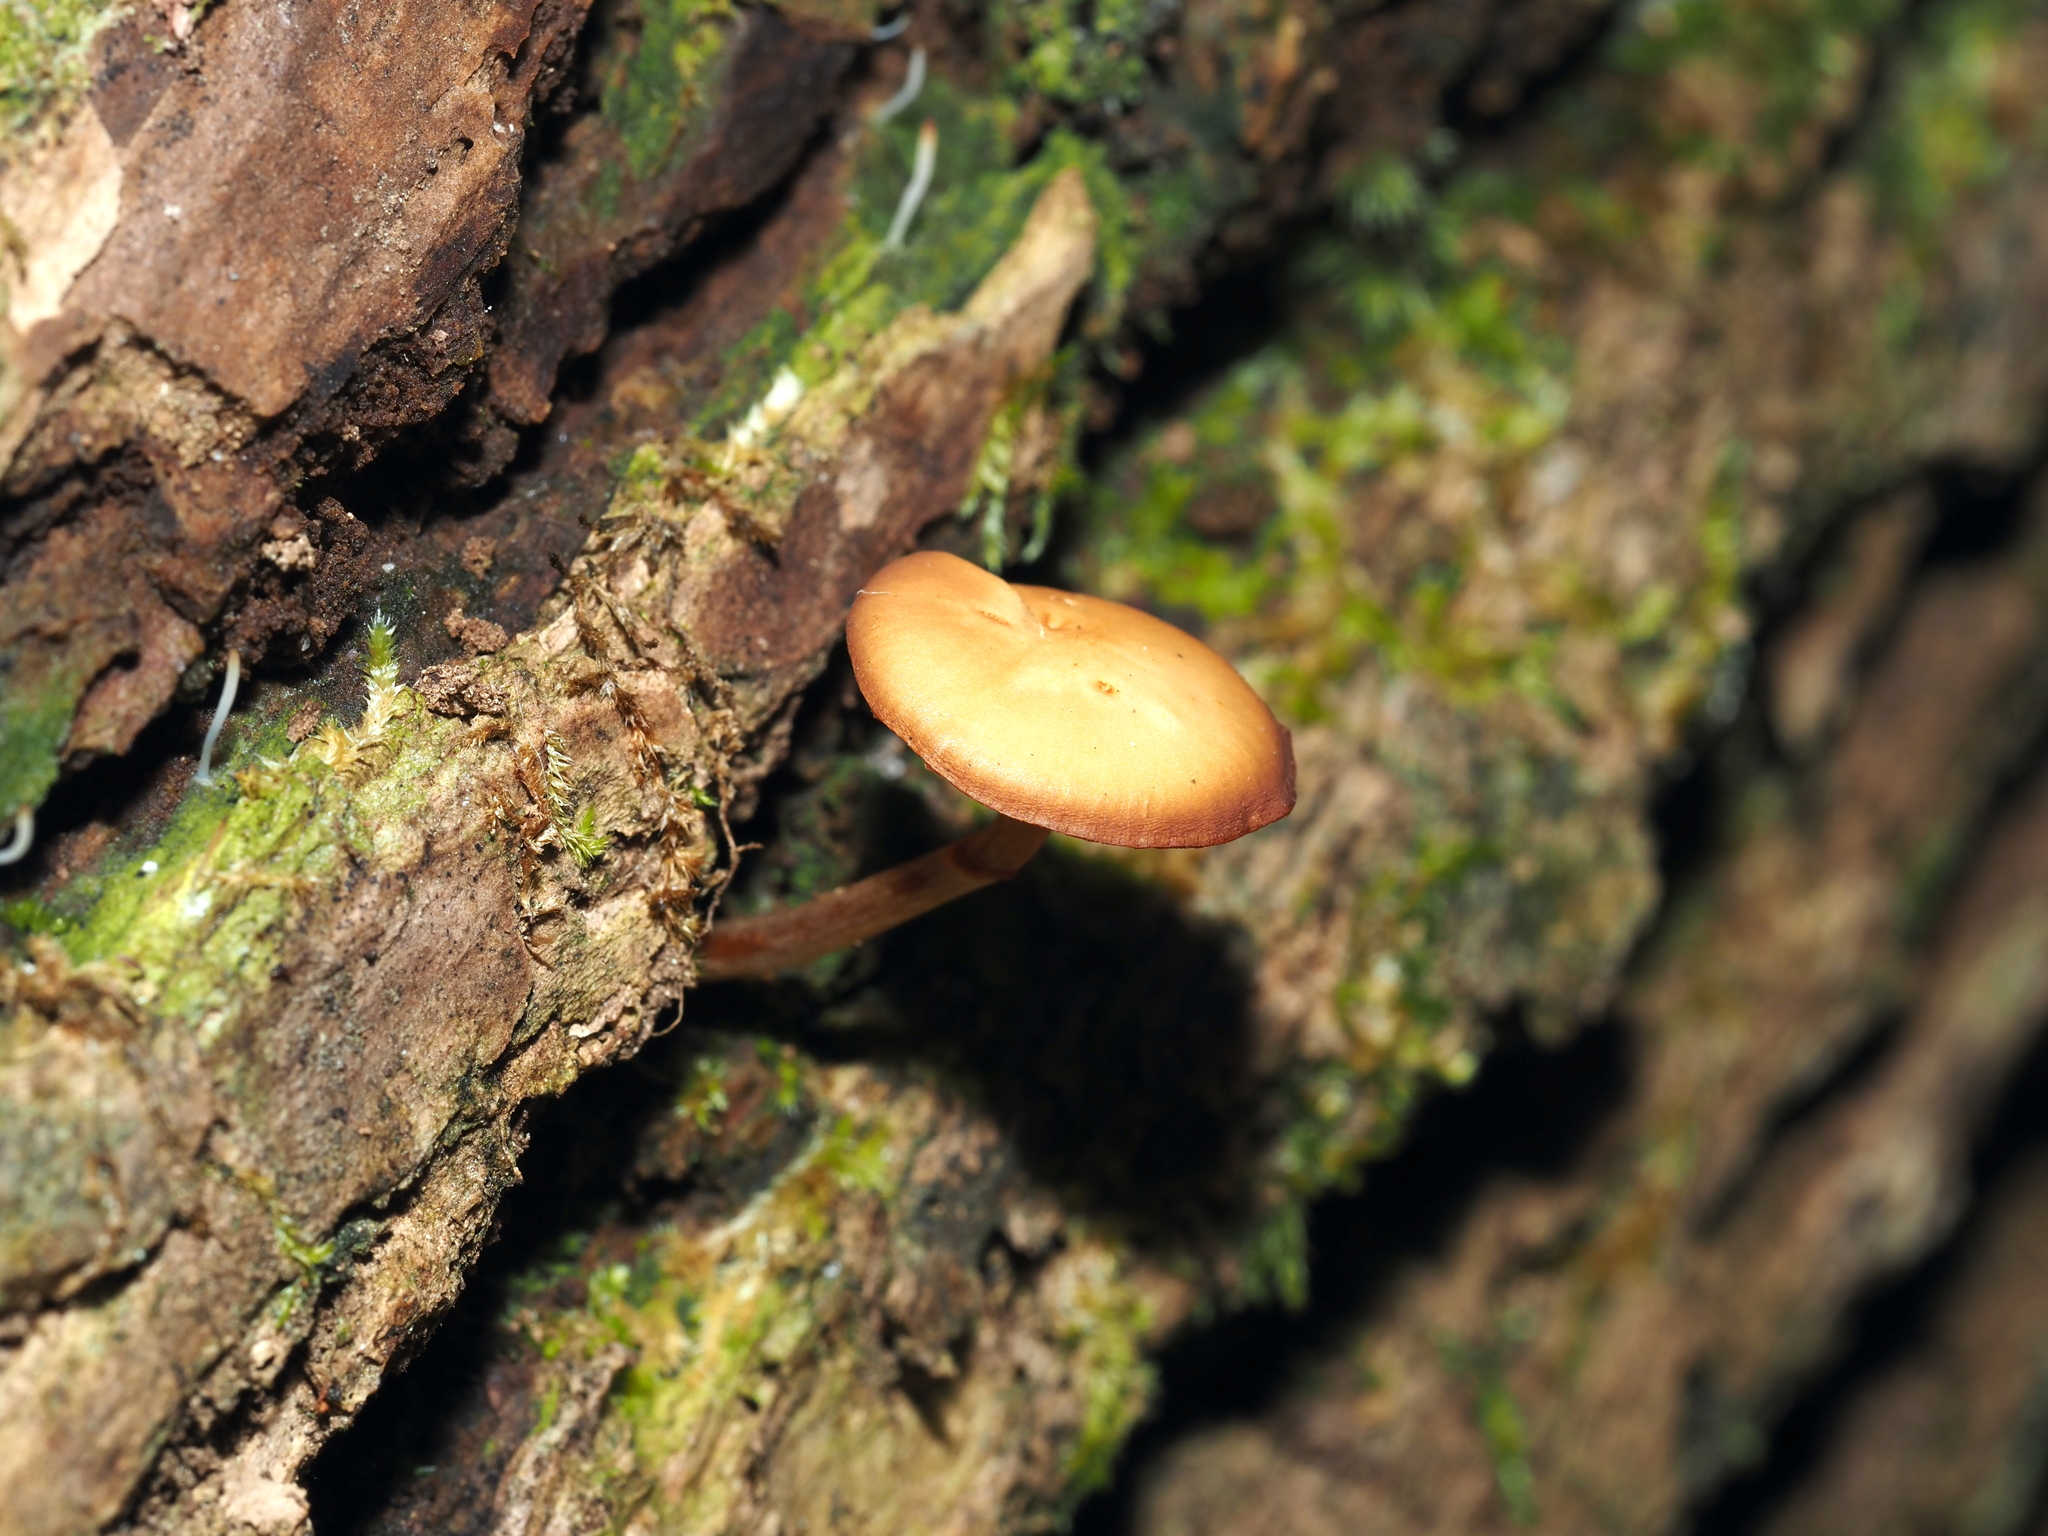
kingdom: Fungi
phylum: Basidiomycota
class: Agaricomycetes
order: Agaricales
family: Hymenogastraceae
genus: Galerina
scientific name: Galerina marginata
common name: Funeral bell
